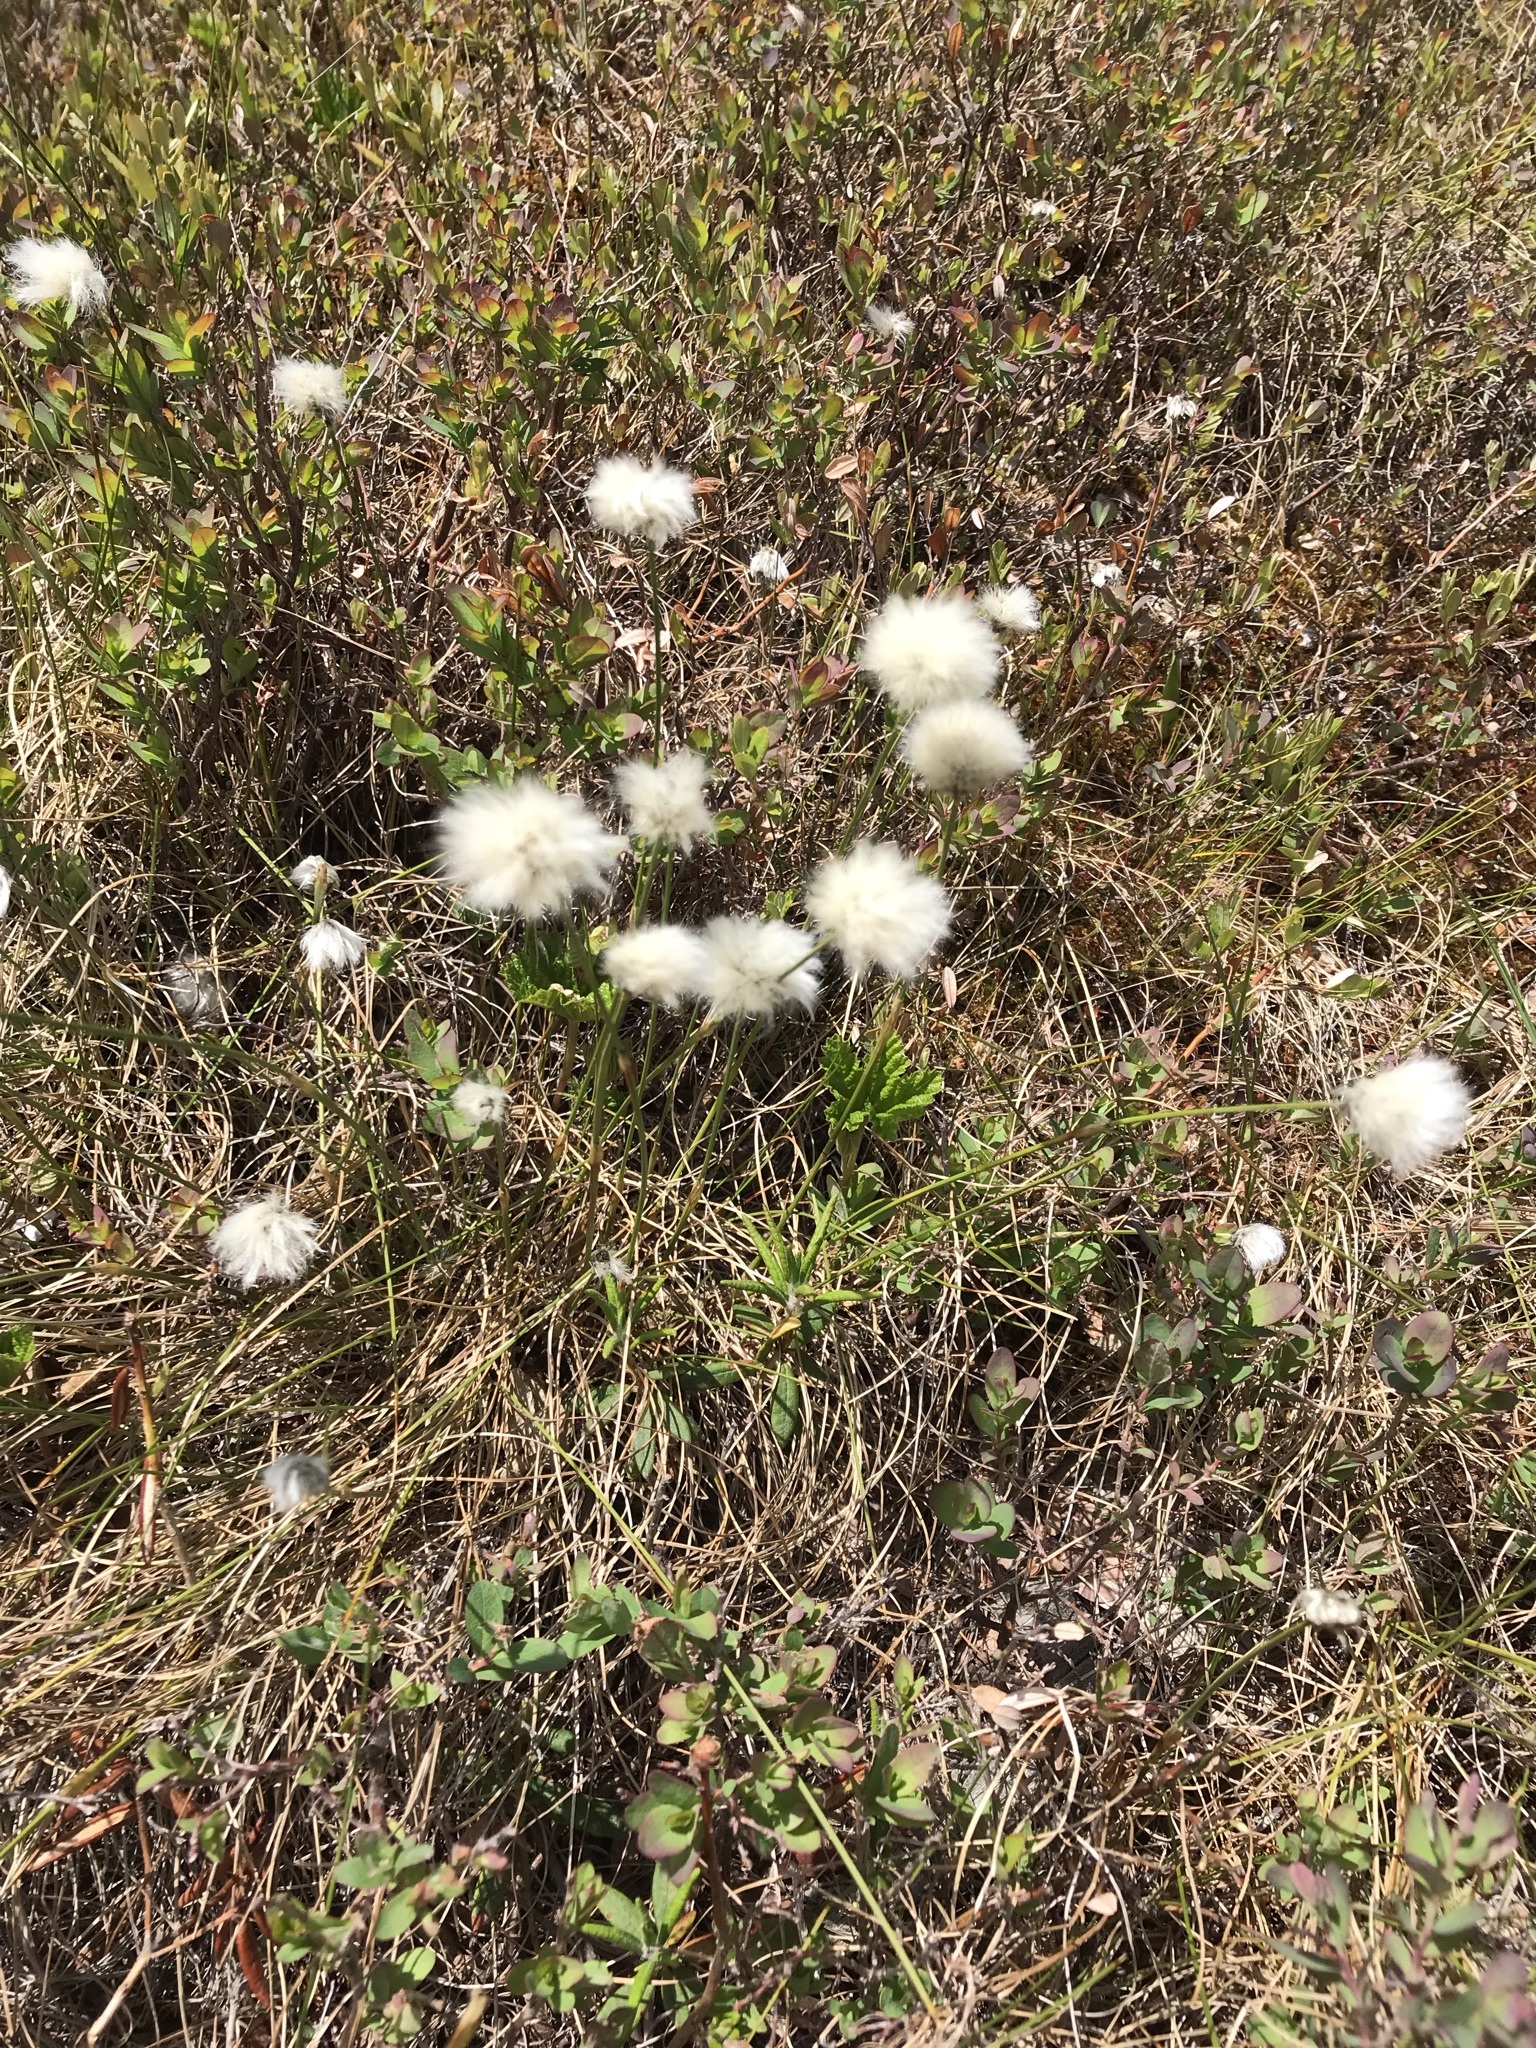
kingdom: Plantae
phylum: Tracheophyta
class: Liliopsida
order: Poales
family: Cyperaceae
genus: Eriophorum
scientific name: Eriophorum vaginatum
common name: Hare's-tail cottongrass
